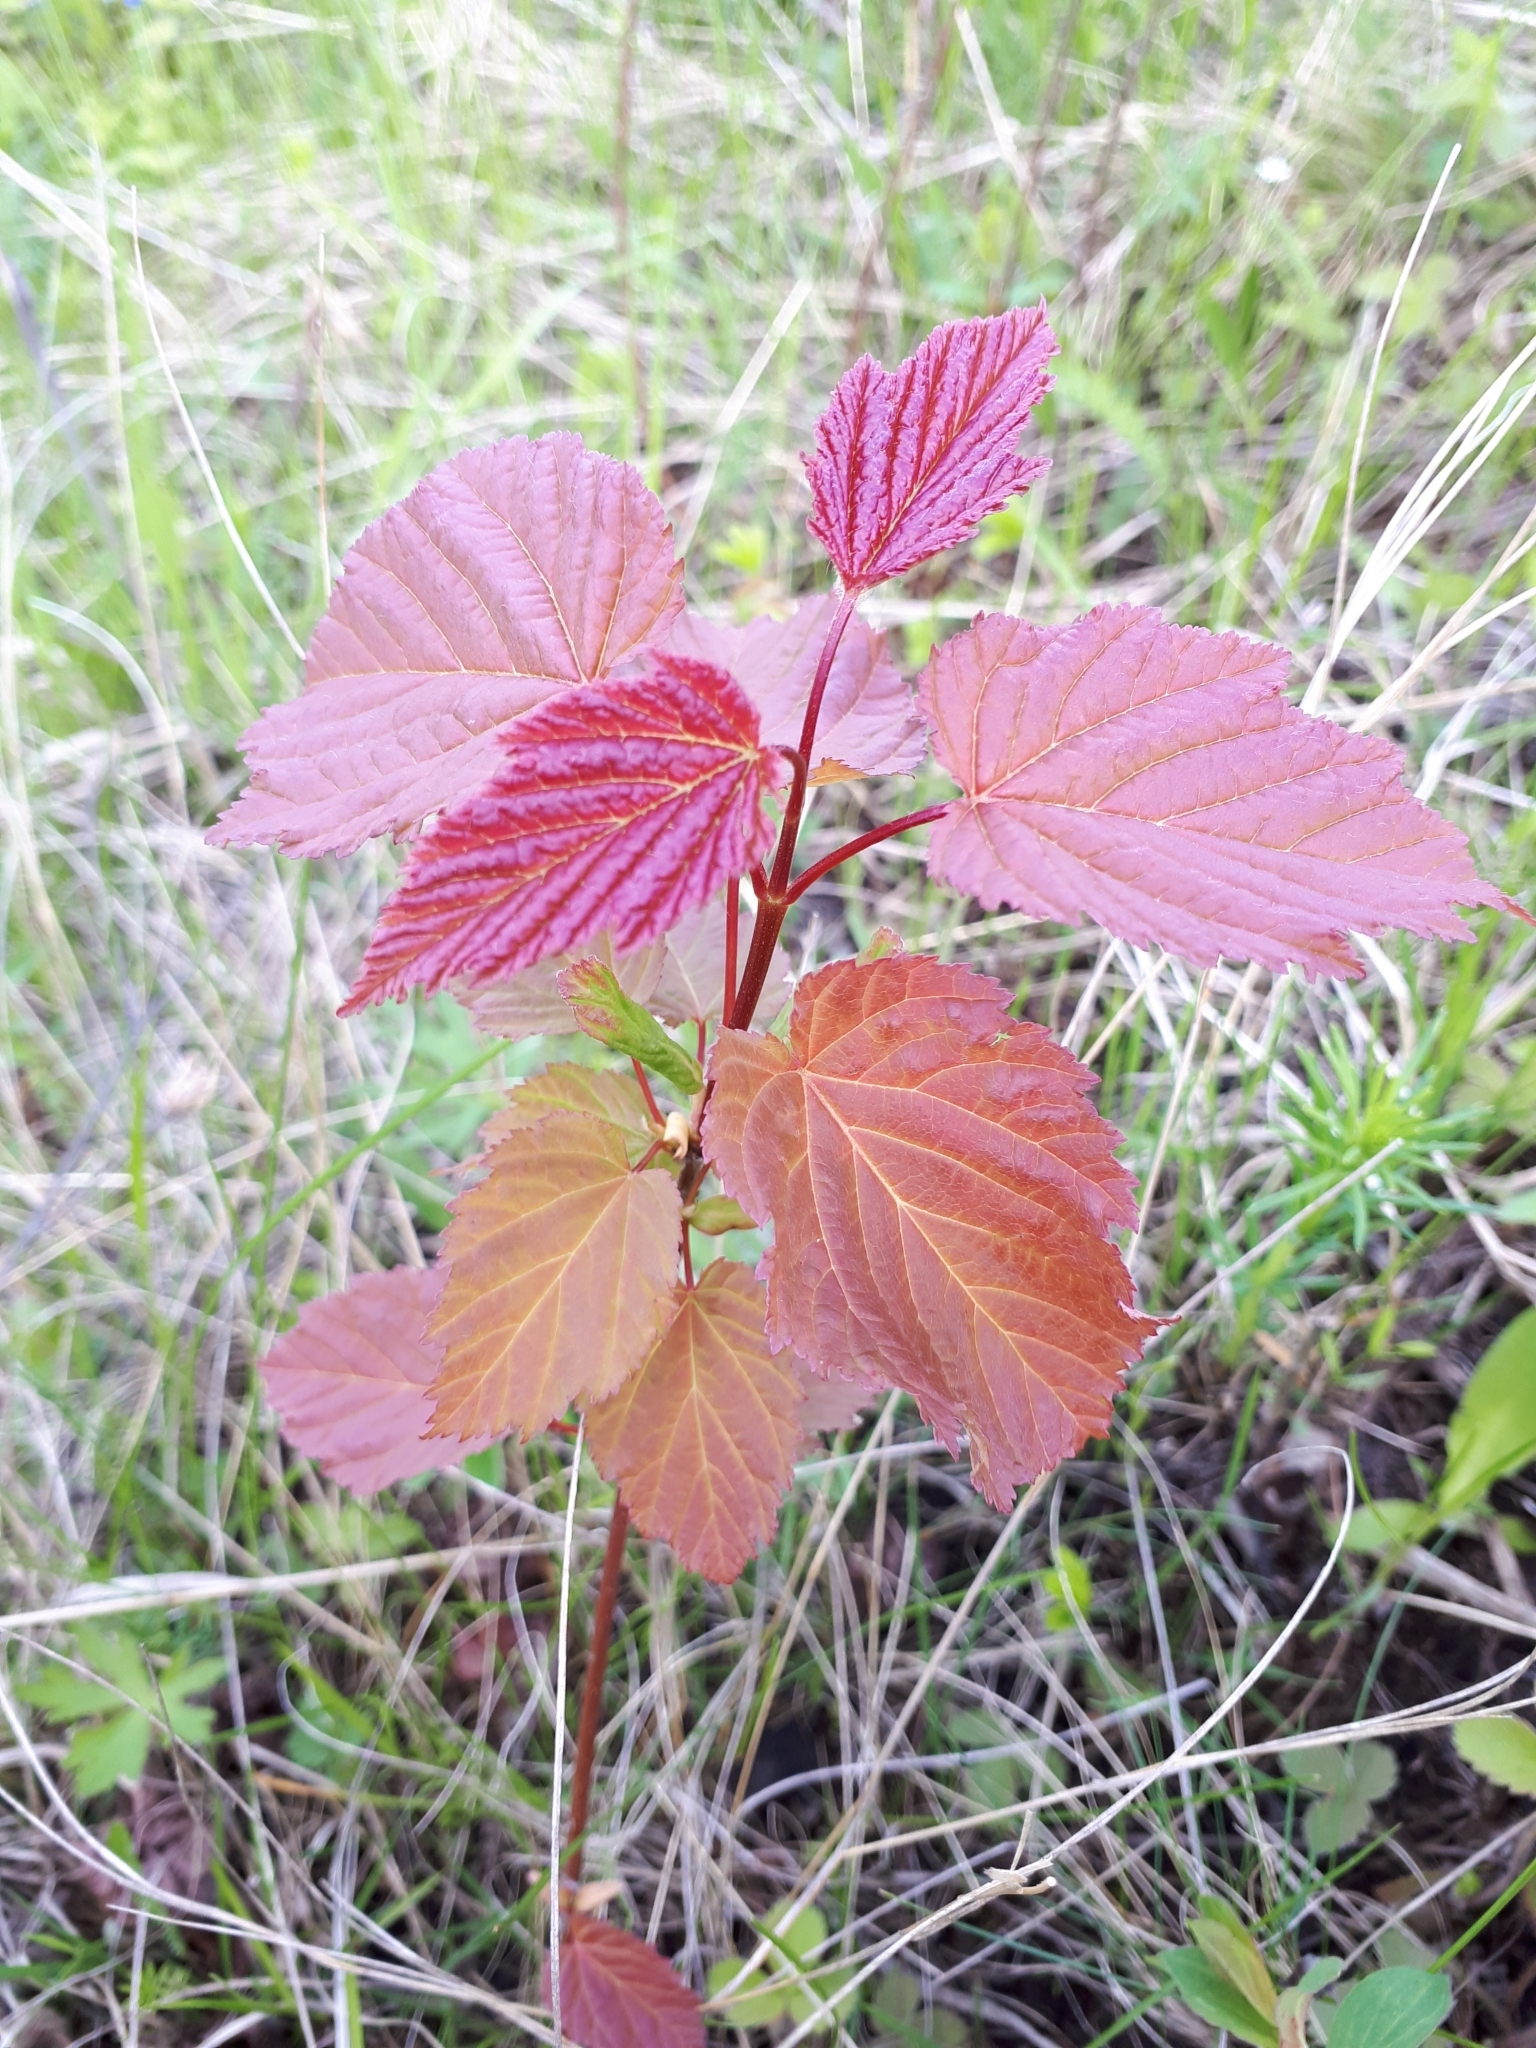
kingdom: Plantae
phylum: Tracheophyta
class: Magnoliopsida
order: Sapindales
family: Sapindaceae
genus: Acer
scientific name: Acer tataricum
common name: Tartar maple
